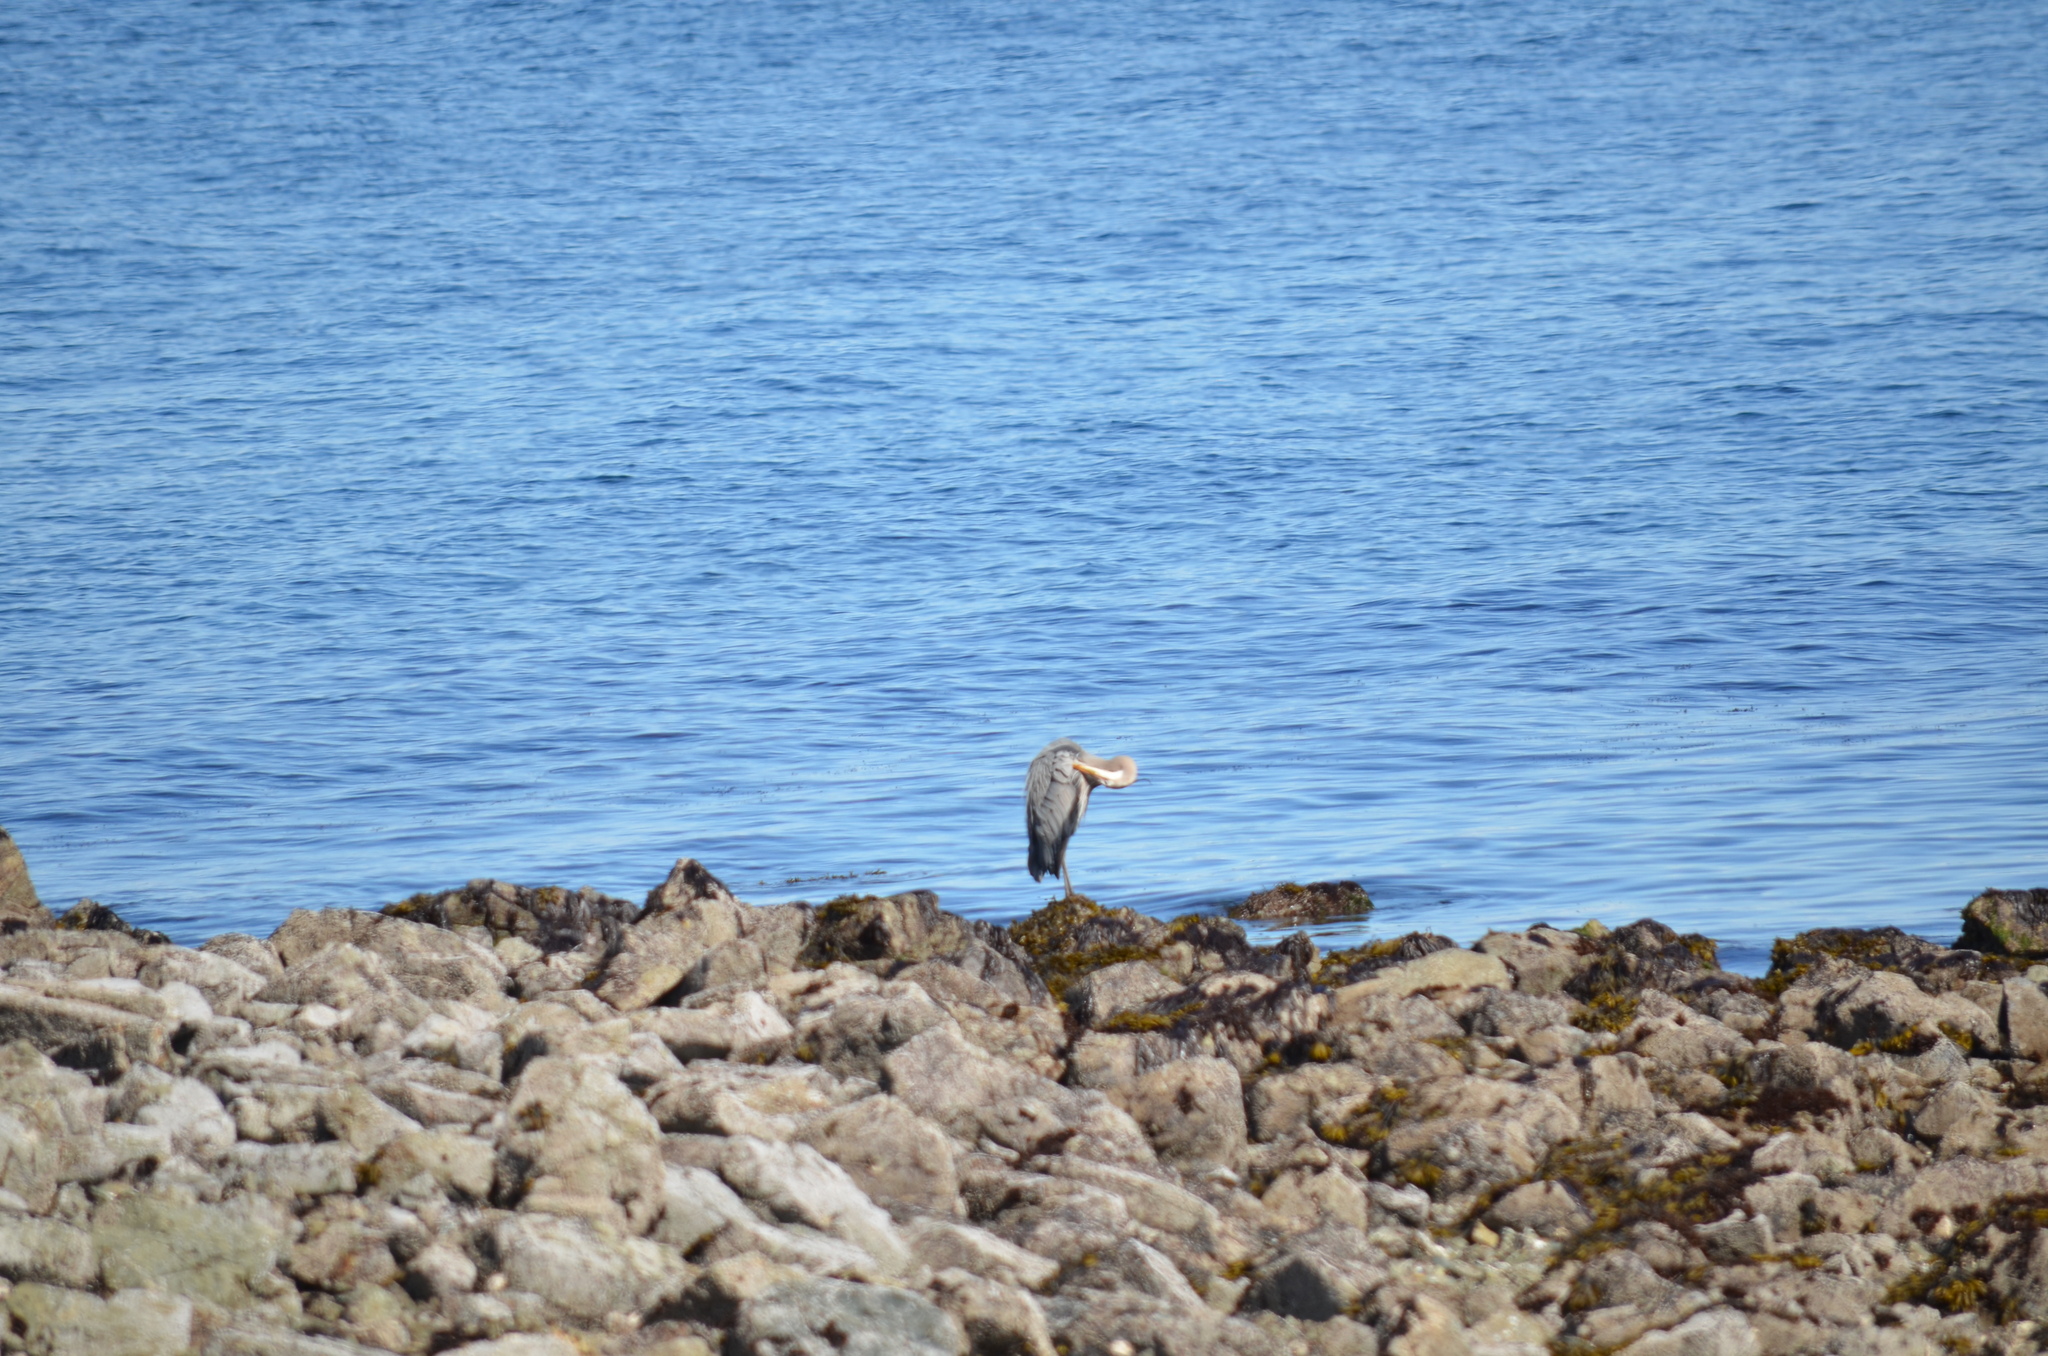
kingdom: Animalia
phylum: Chordata
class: Aves
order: Pelecaniformes
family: Ardeidae
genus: Ardea
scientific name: Ardea herodias
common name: Great blue heron
